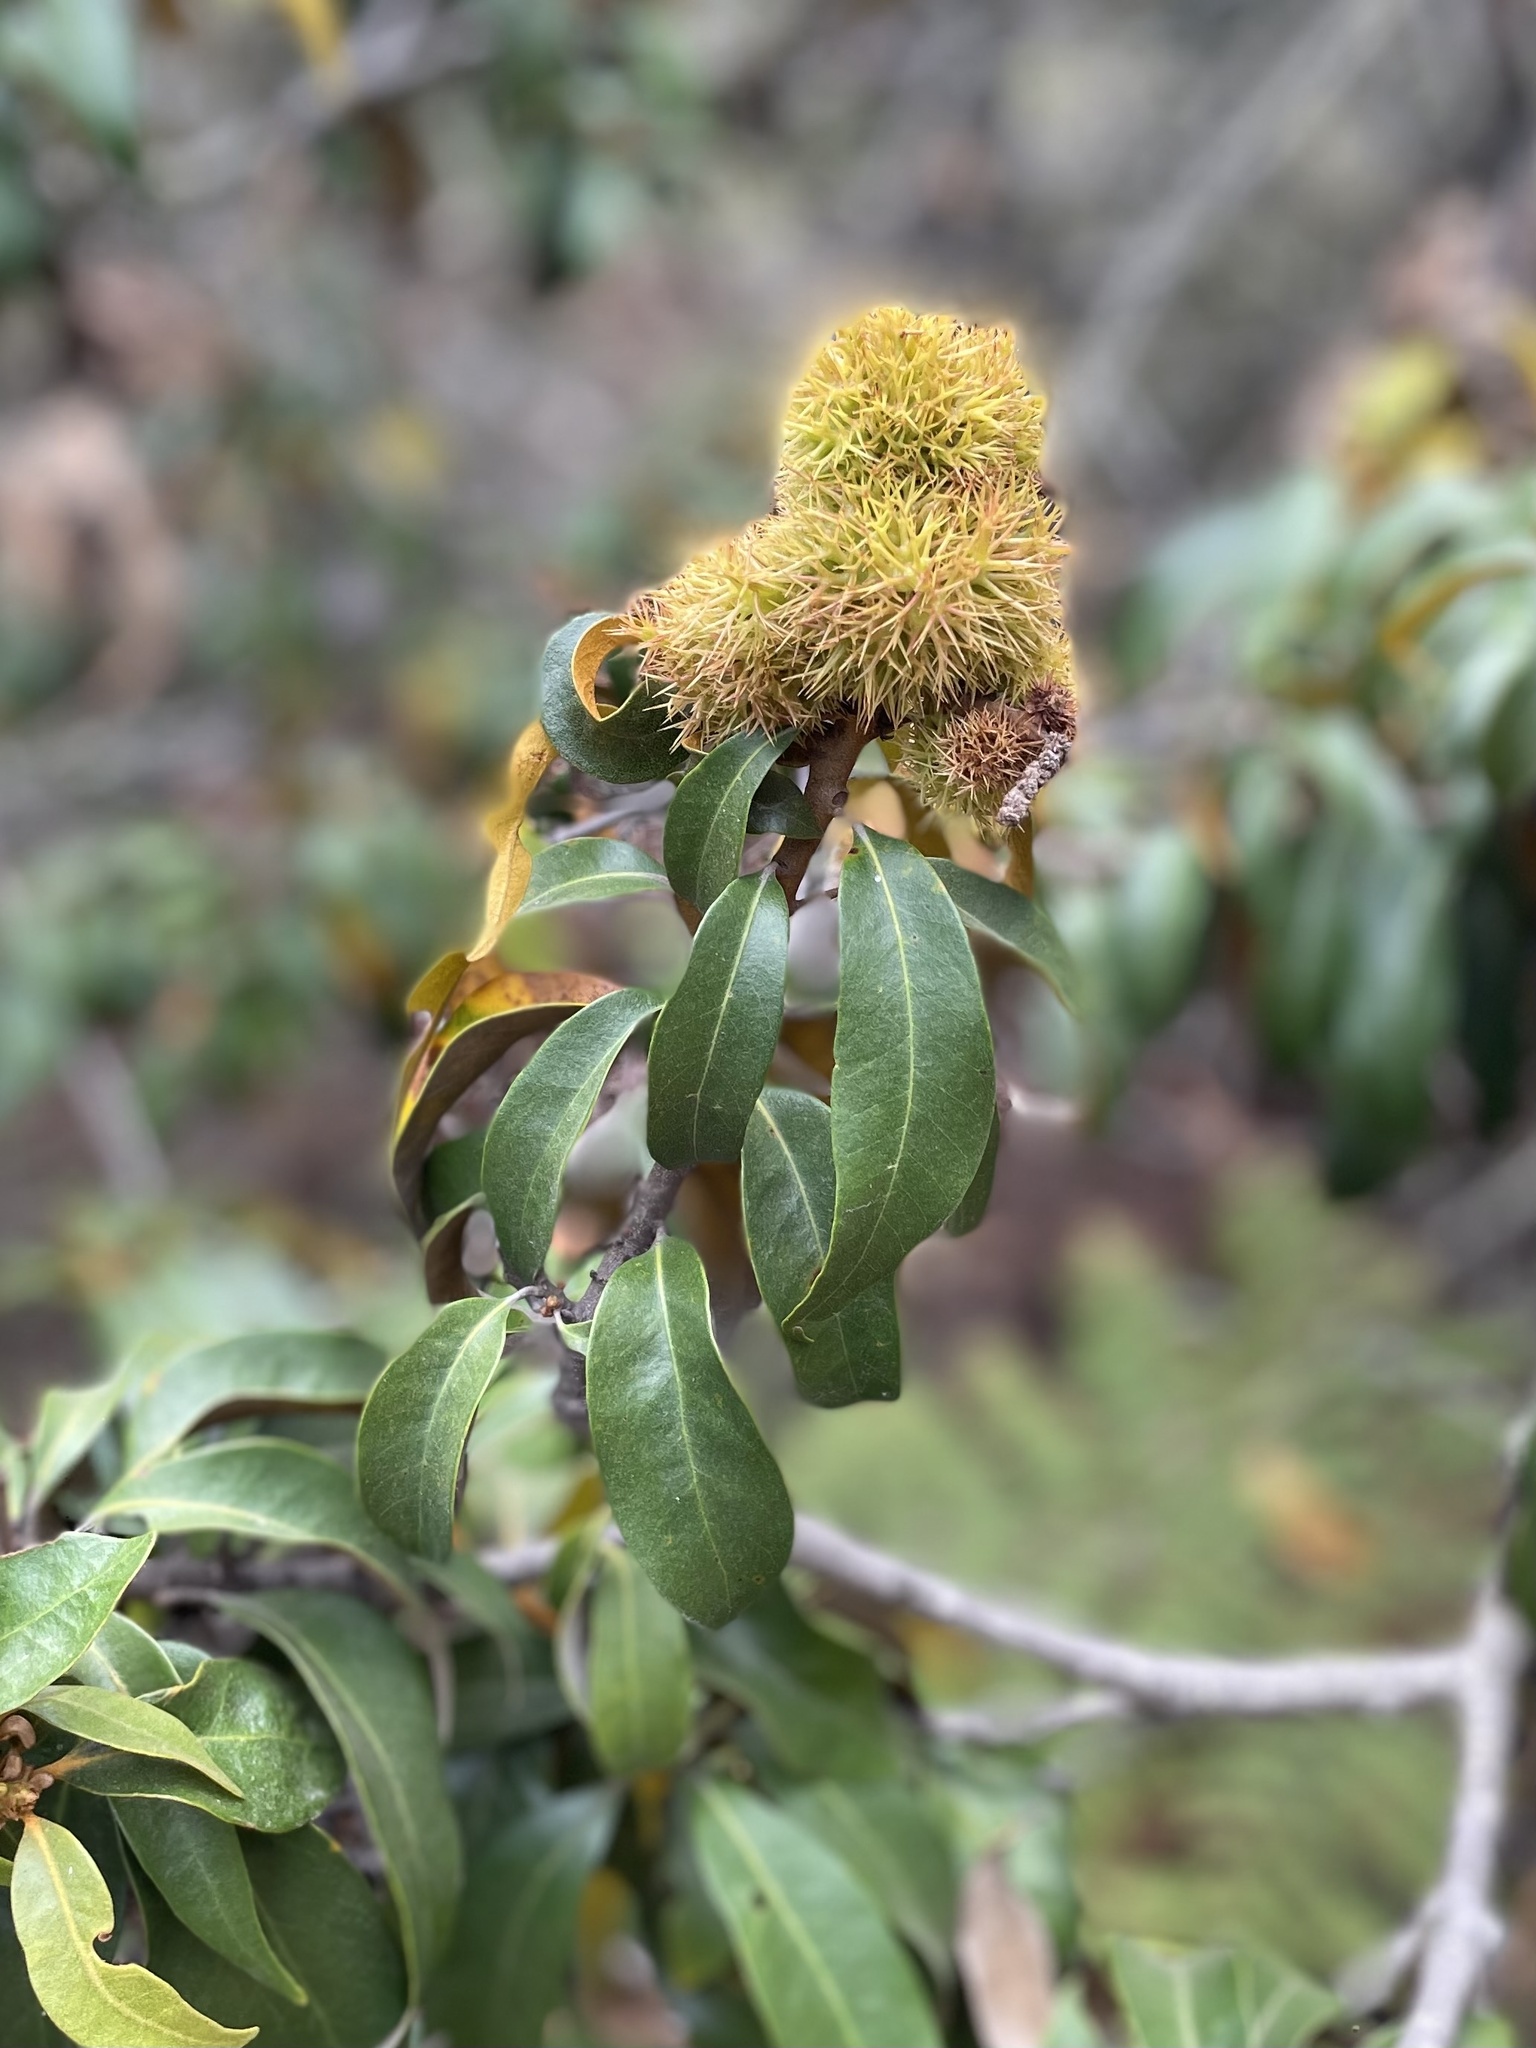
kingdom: Plantae
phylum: Tracheophyta
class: Magnoliopsida
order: Fagales
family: Fagaceae
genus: Chrysolepis
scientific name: Chrysolepis chrysophylla
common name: Giant chinquapin
